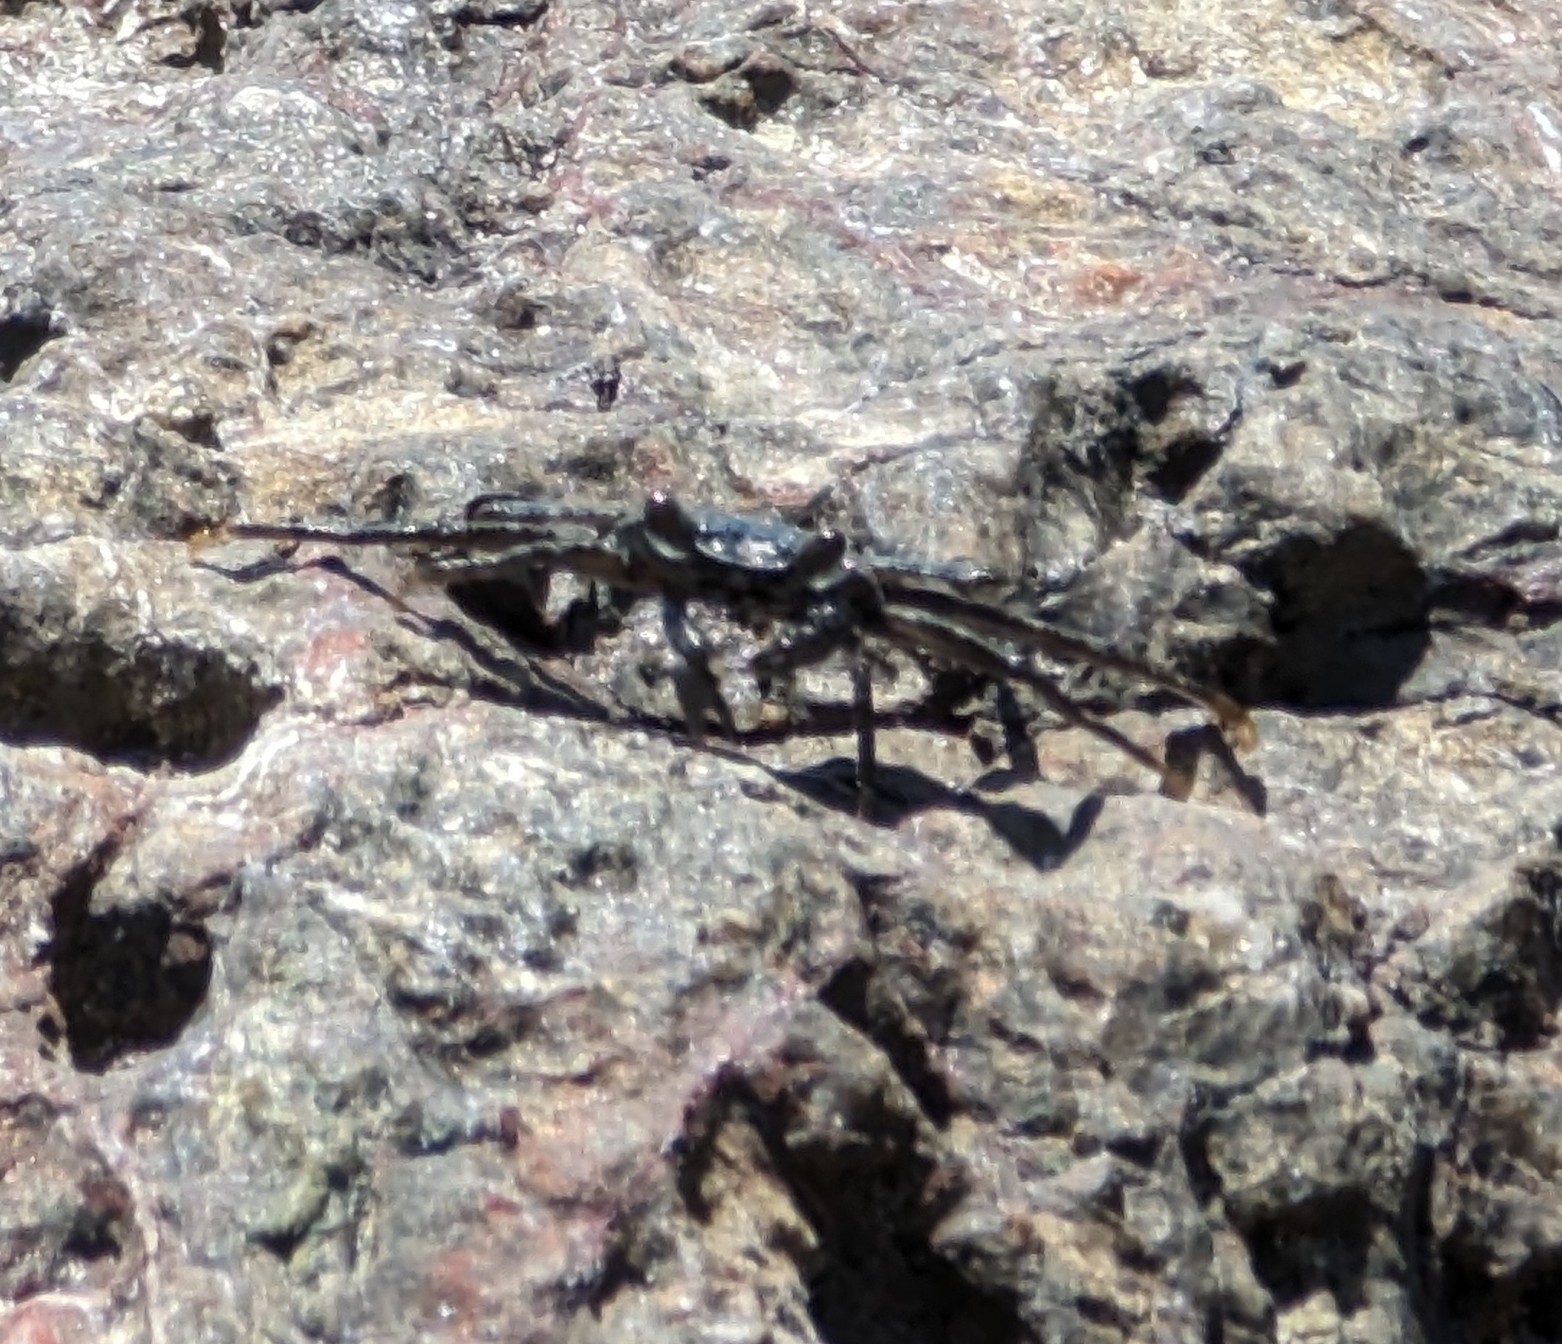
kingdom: Animalia
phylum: Arthropoda
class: Malacostraca
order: Decapoda
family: Grapsidae
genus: Grapsus
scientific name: Grapsus grapsus
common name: Sally lightfoot
